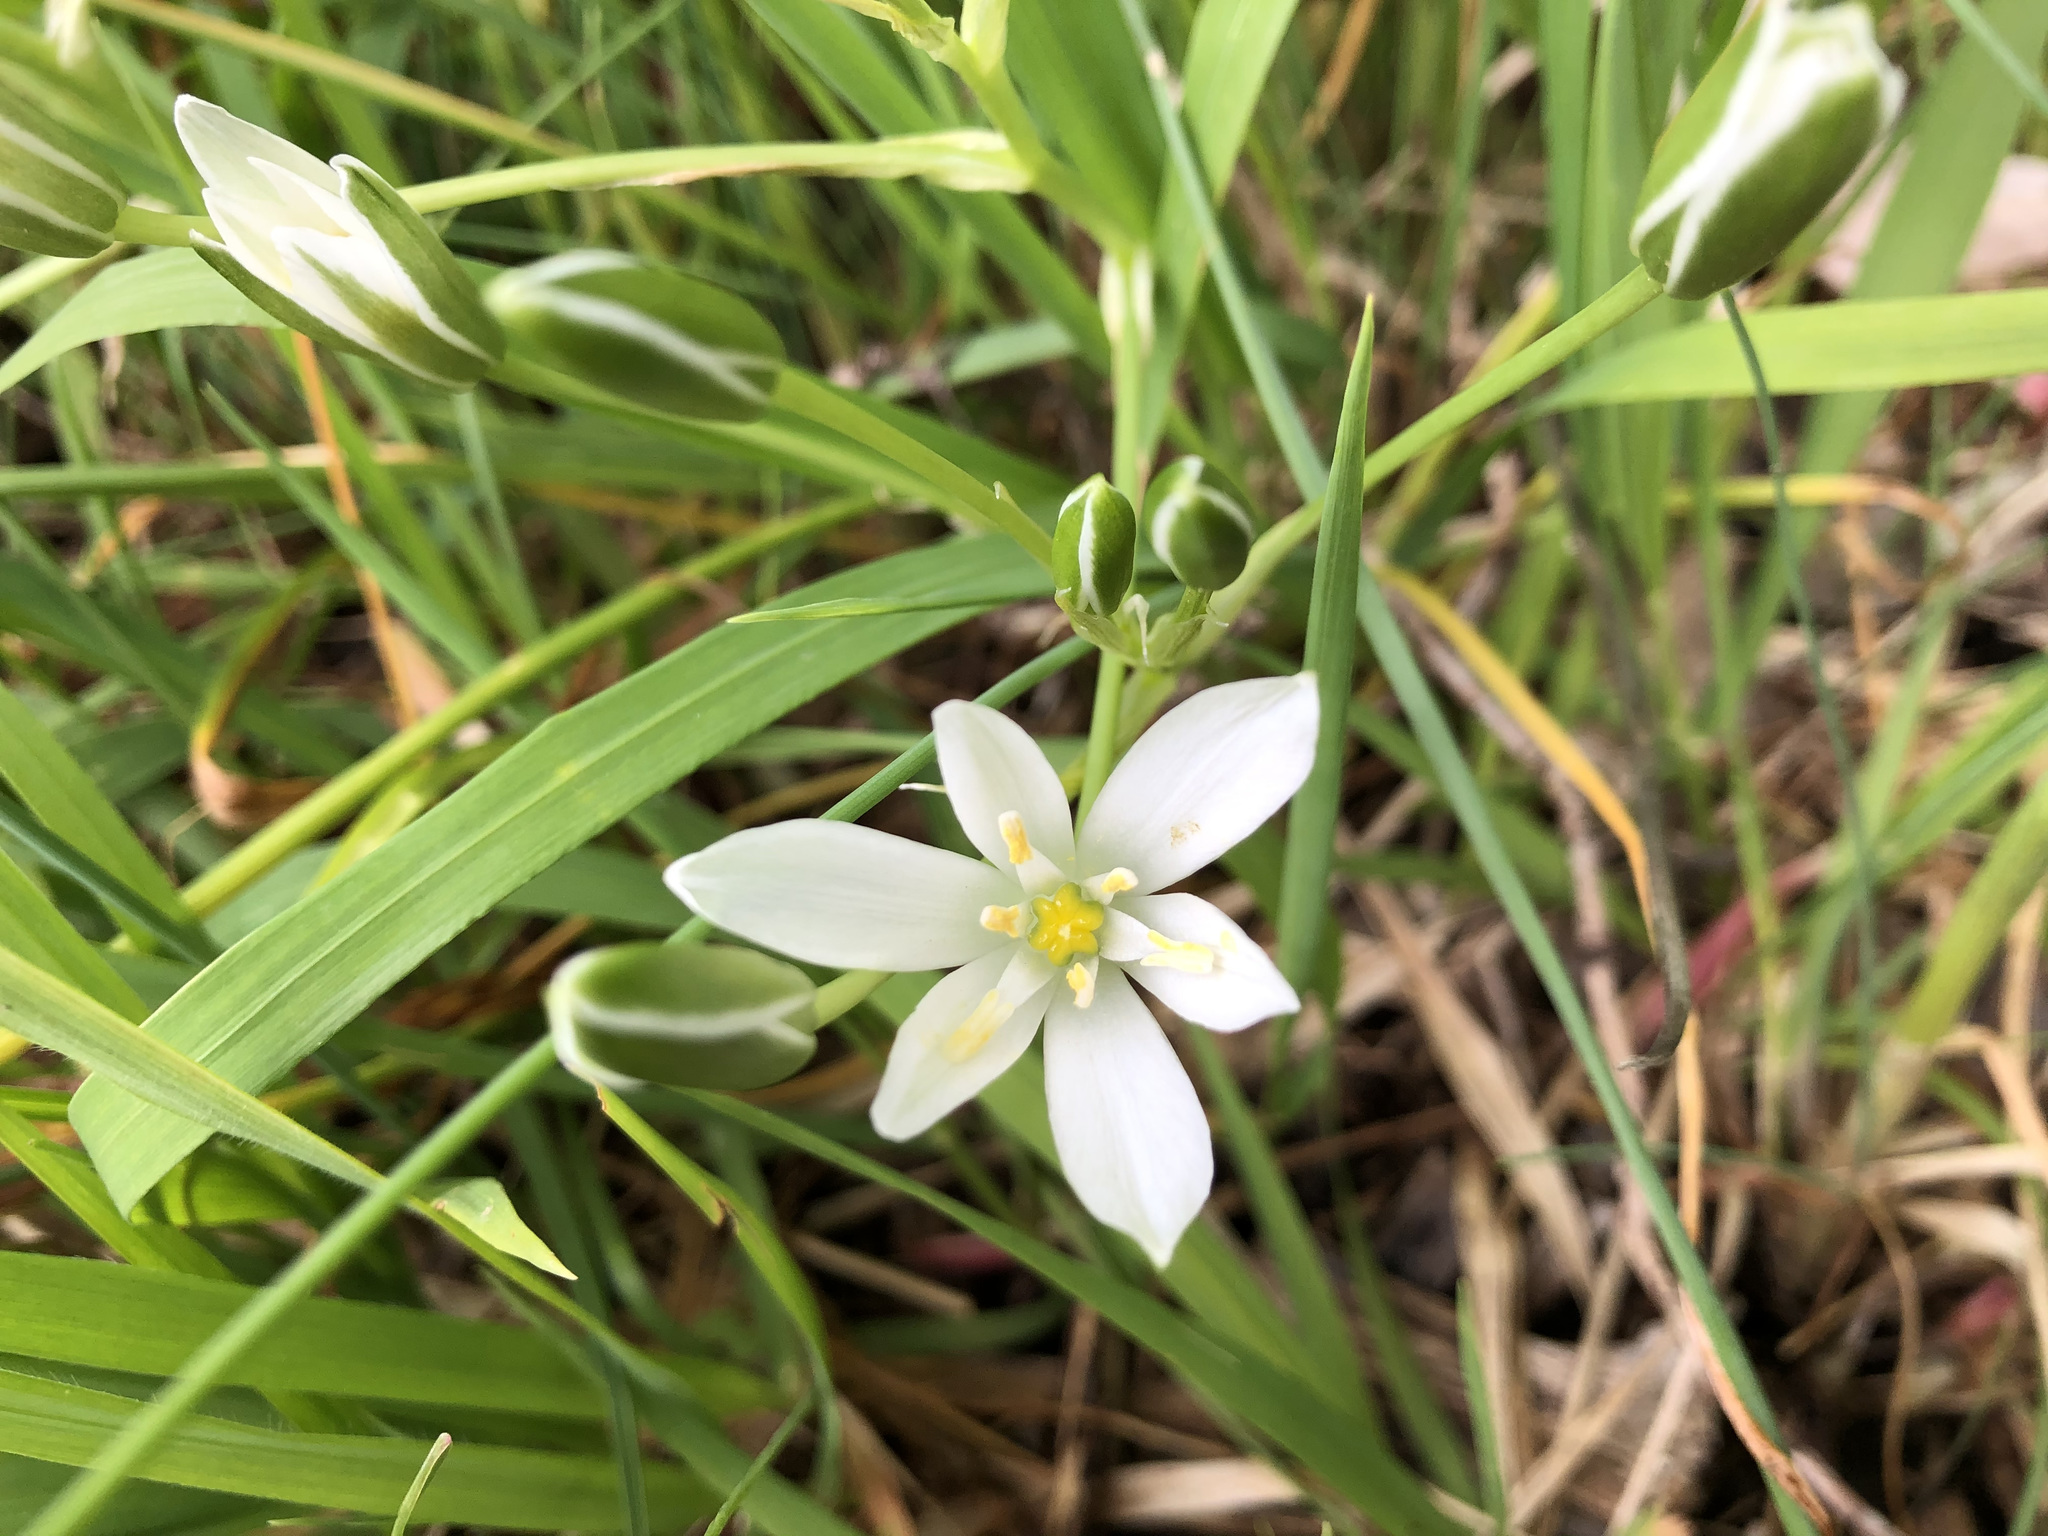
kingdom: Plantae
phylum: Tracheophyta
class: Liliopsida
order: Asparagales
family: Asparagaceae
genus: Ornithogalum
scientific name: Ornithogalum umbellatum
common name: Garden star-of-bethlehem
